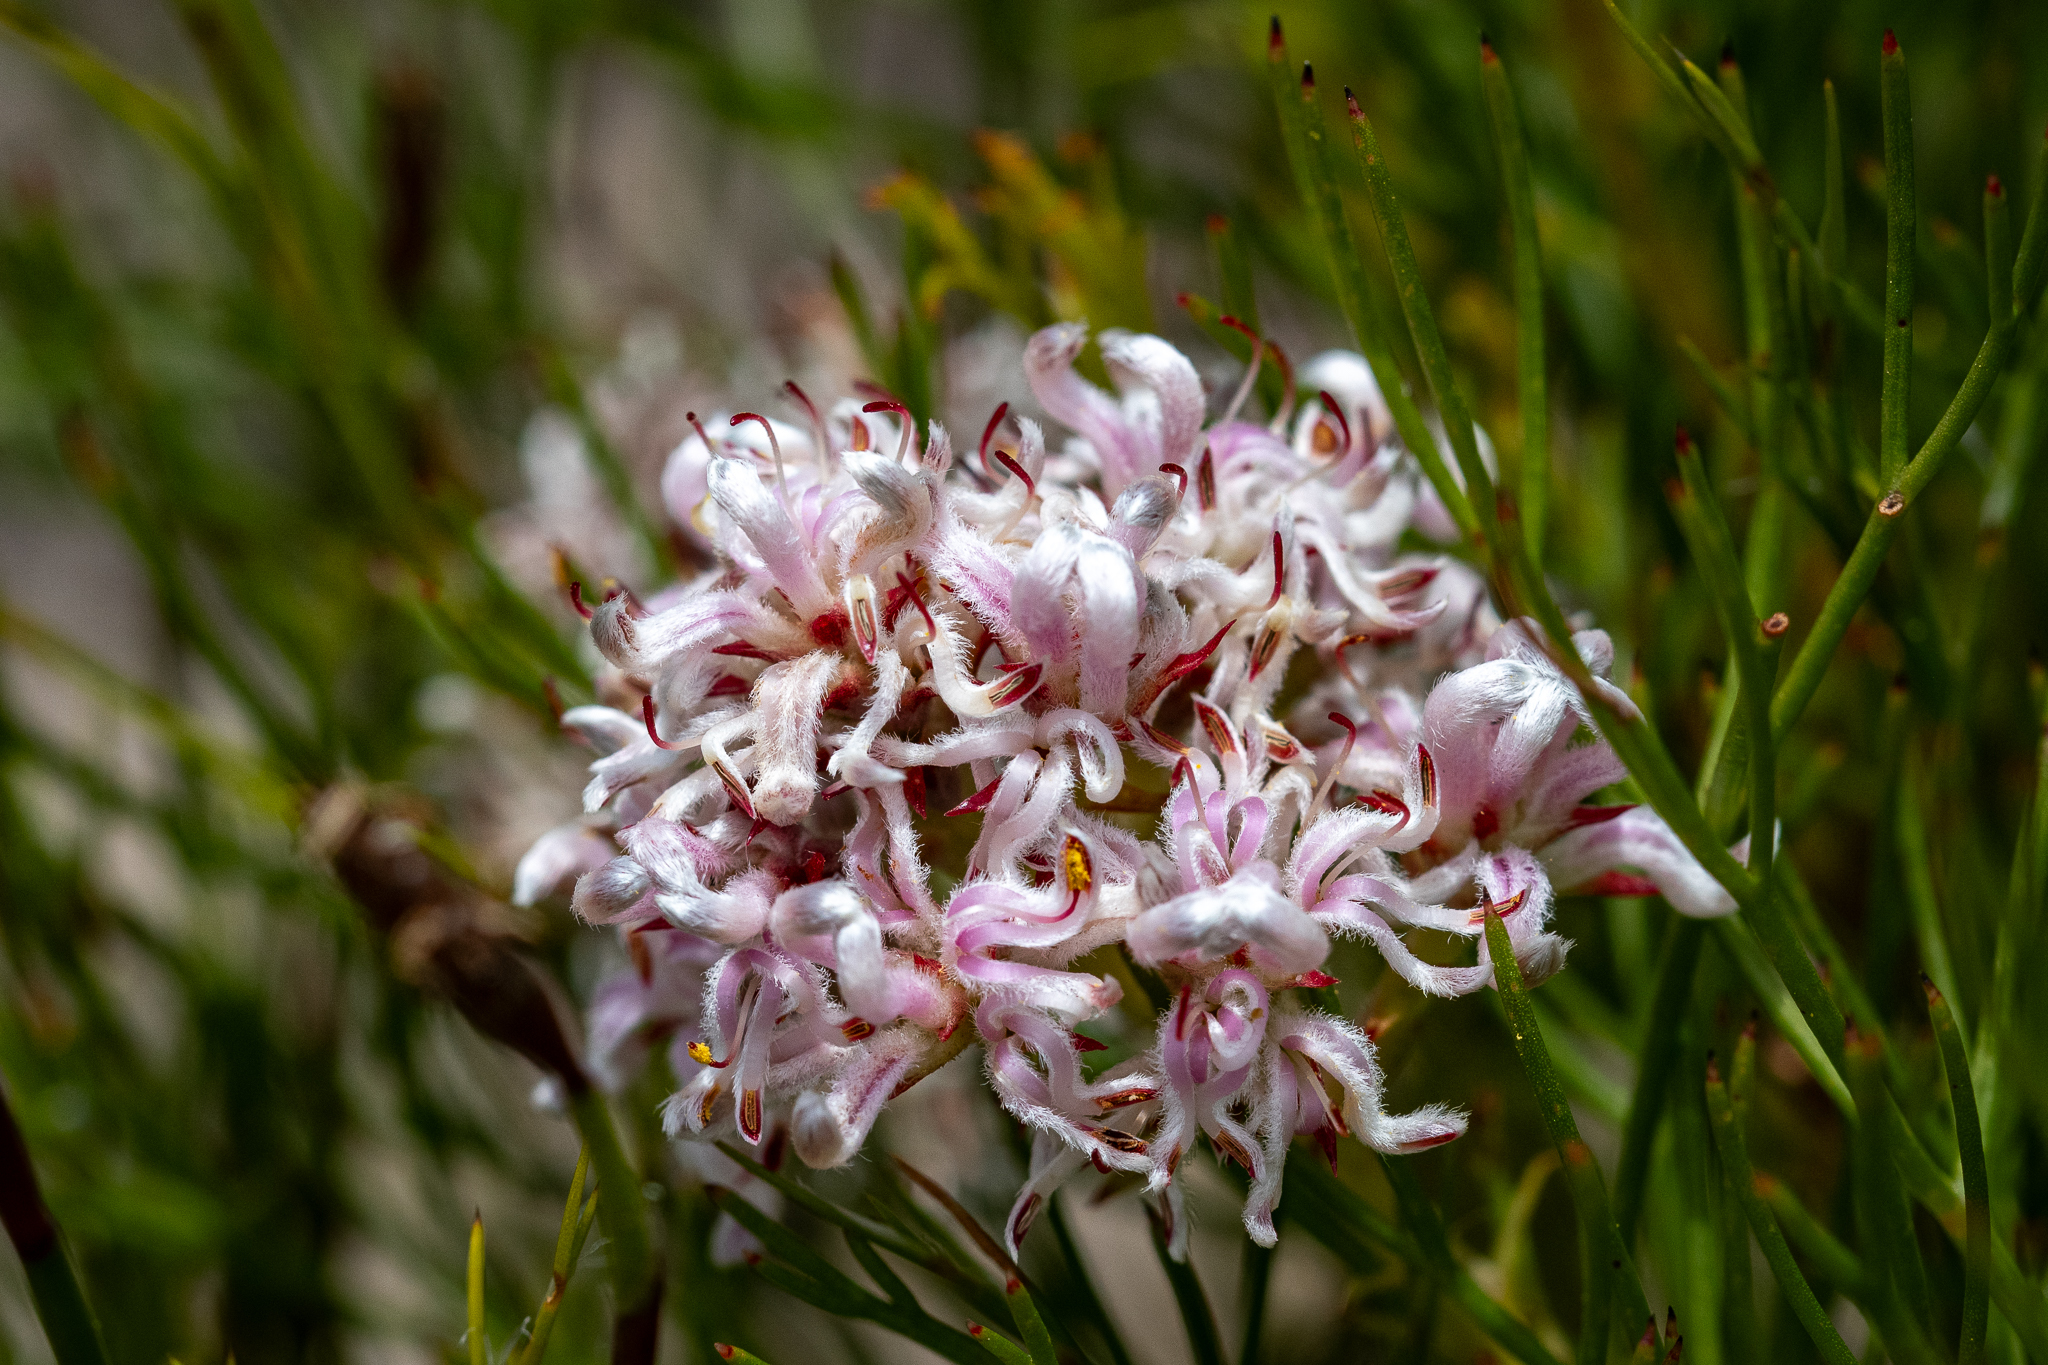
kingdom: Plantae
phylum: Tracheophyta
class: Magnoliopsida
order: Proteales
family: Proteaceae
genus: Serruria
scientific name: Serruria rubricaulis
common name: Red-stem spiderhead
